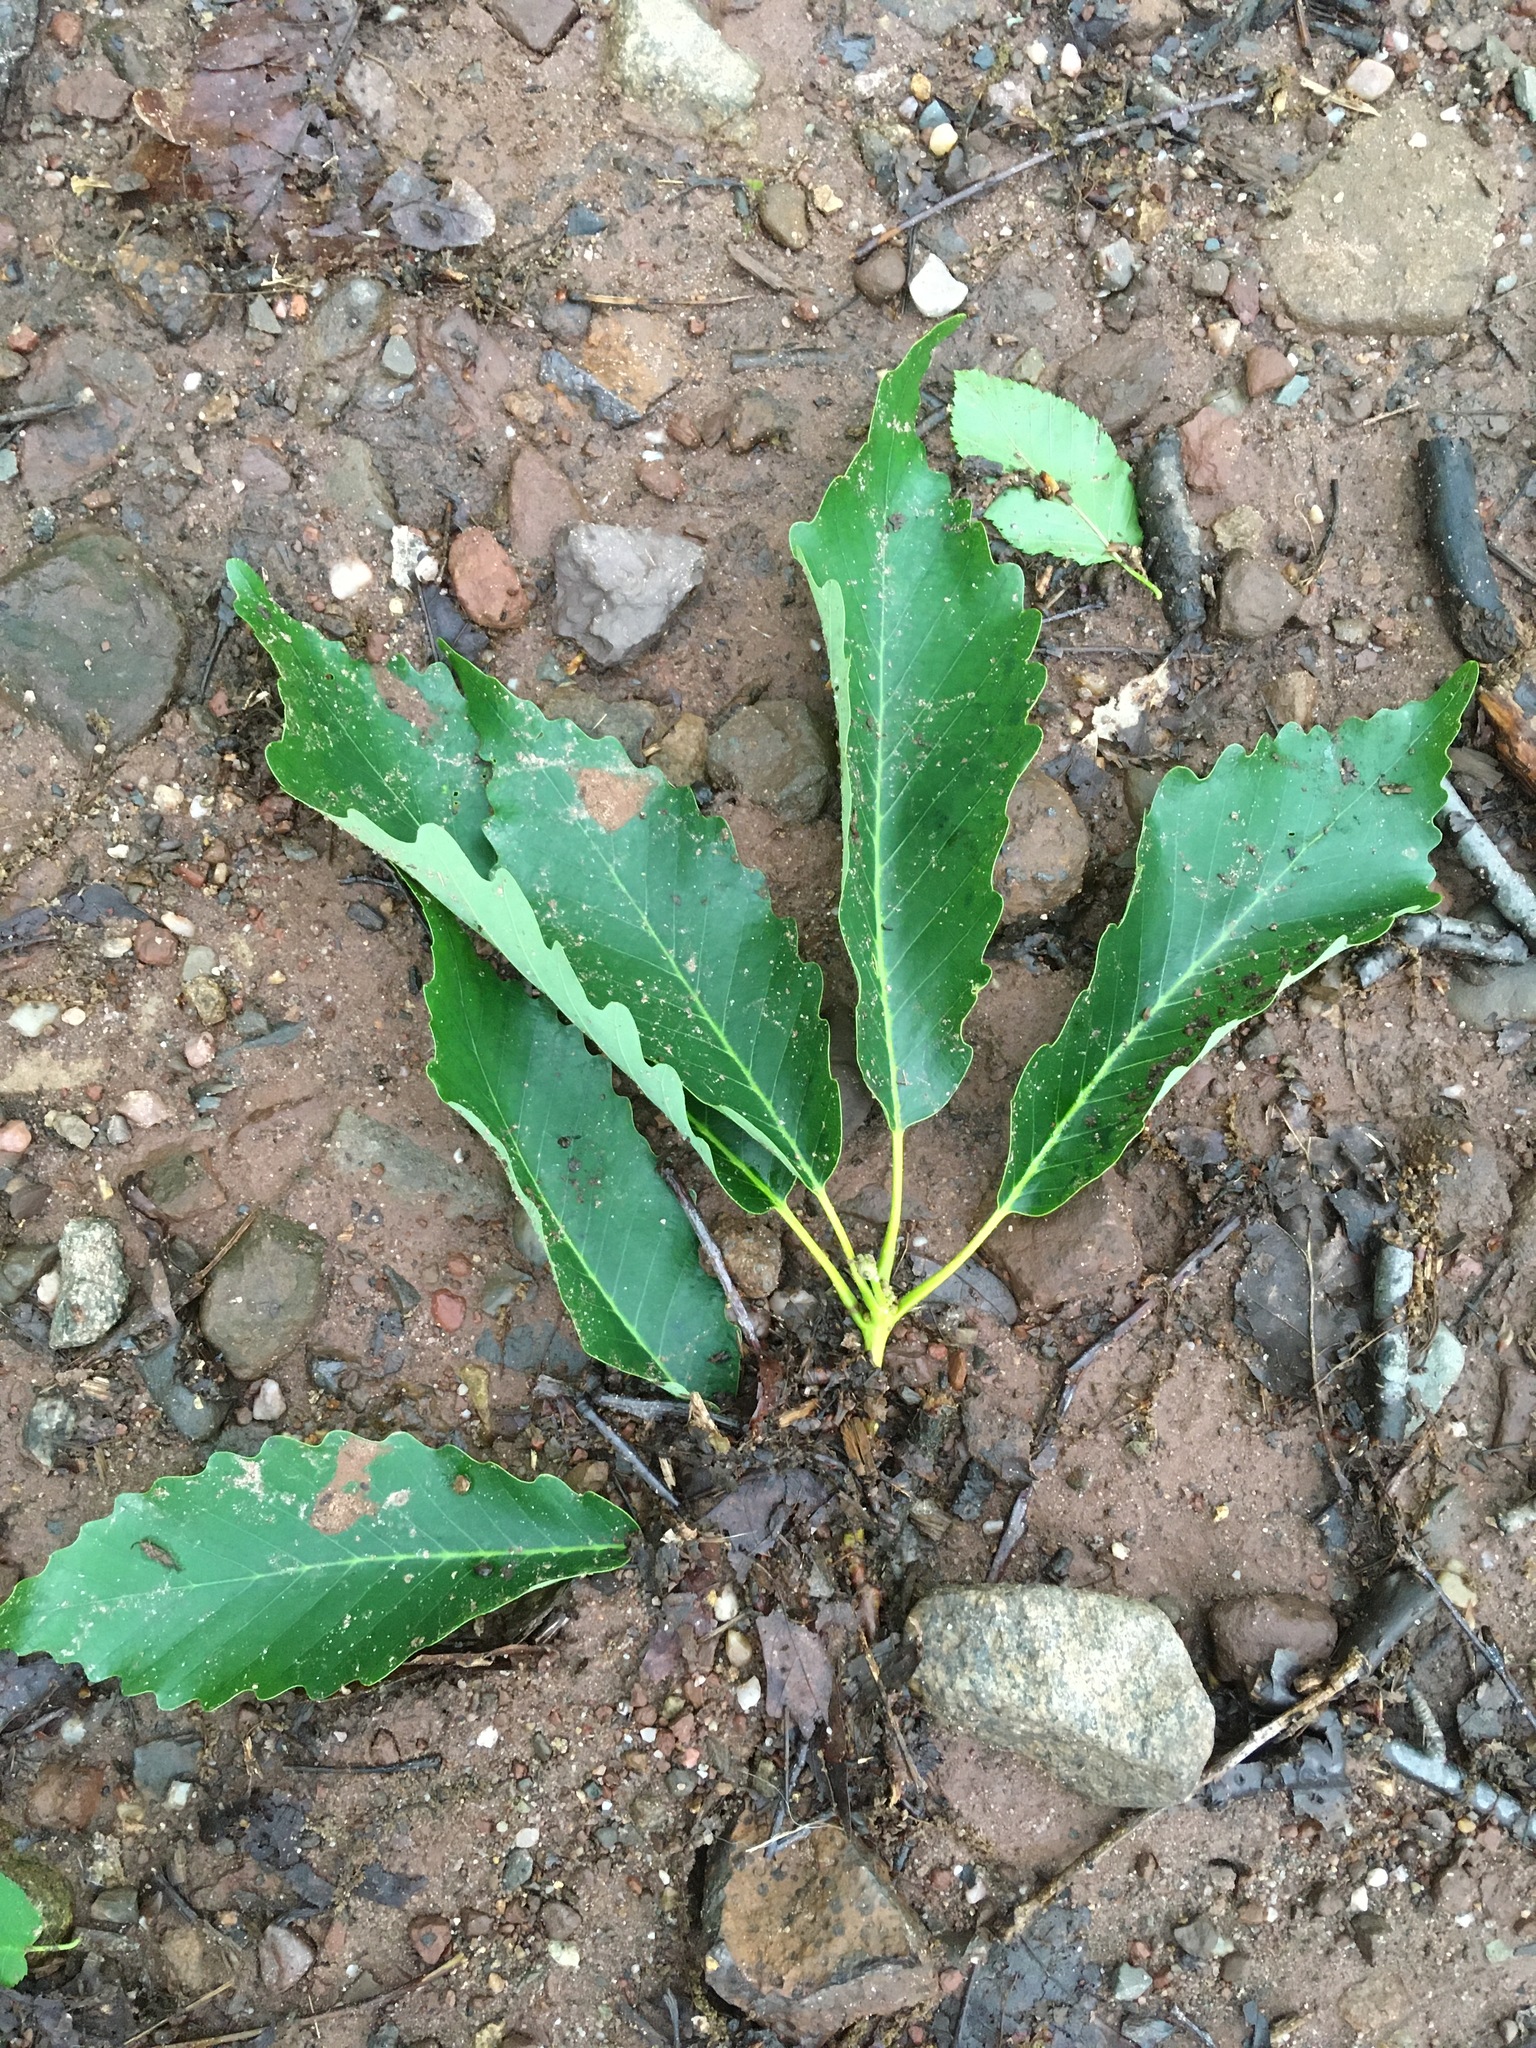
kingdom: Plantae
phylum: Tracheophyta
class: Magnoliopsida
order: Fagales
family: Fagaceae
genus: Quercus
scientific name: Quercus montana
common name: Chestnut oak
